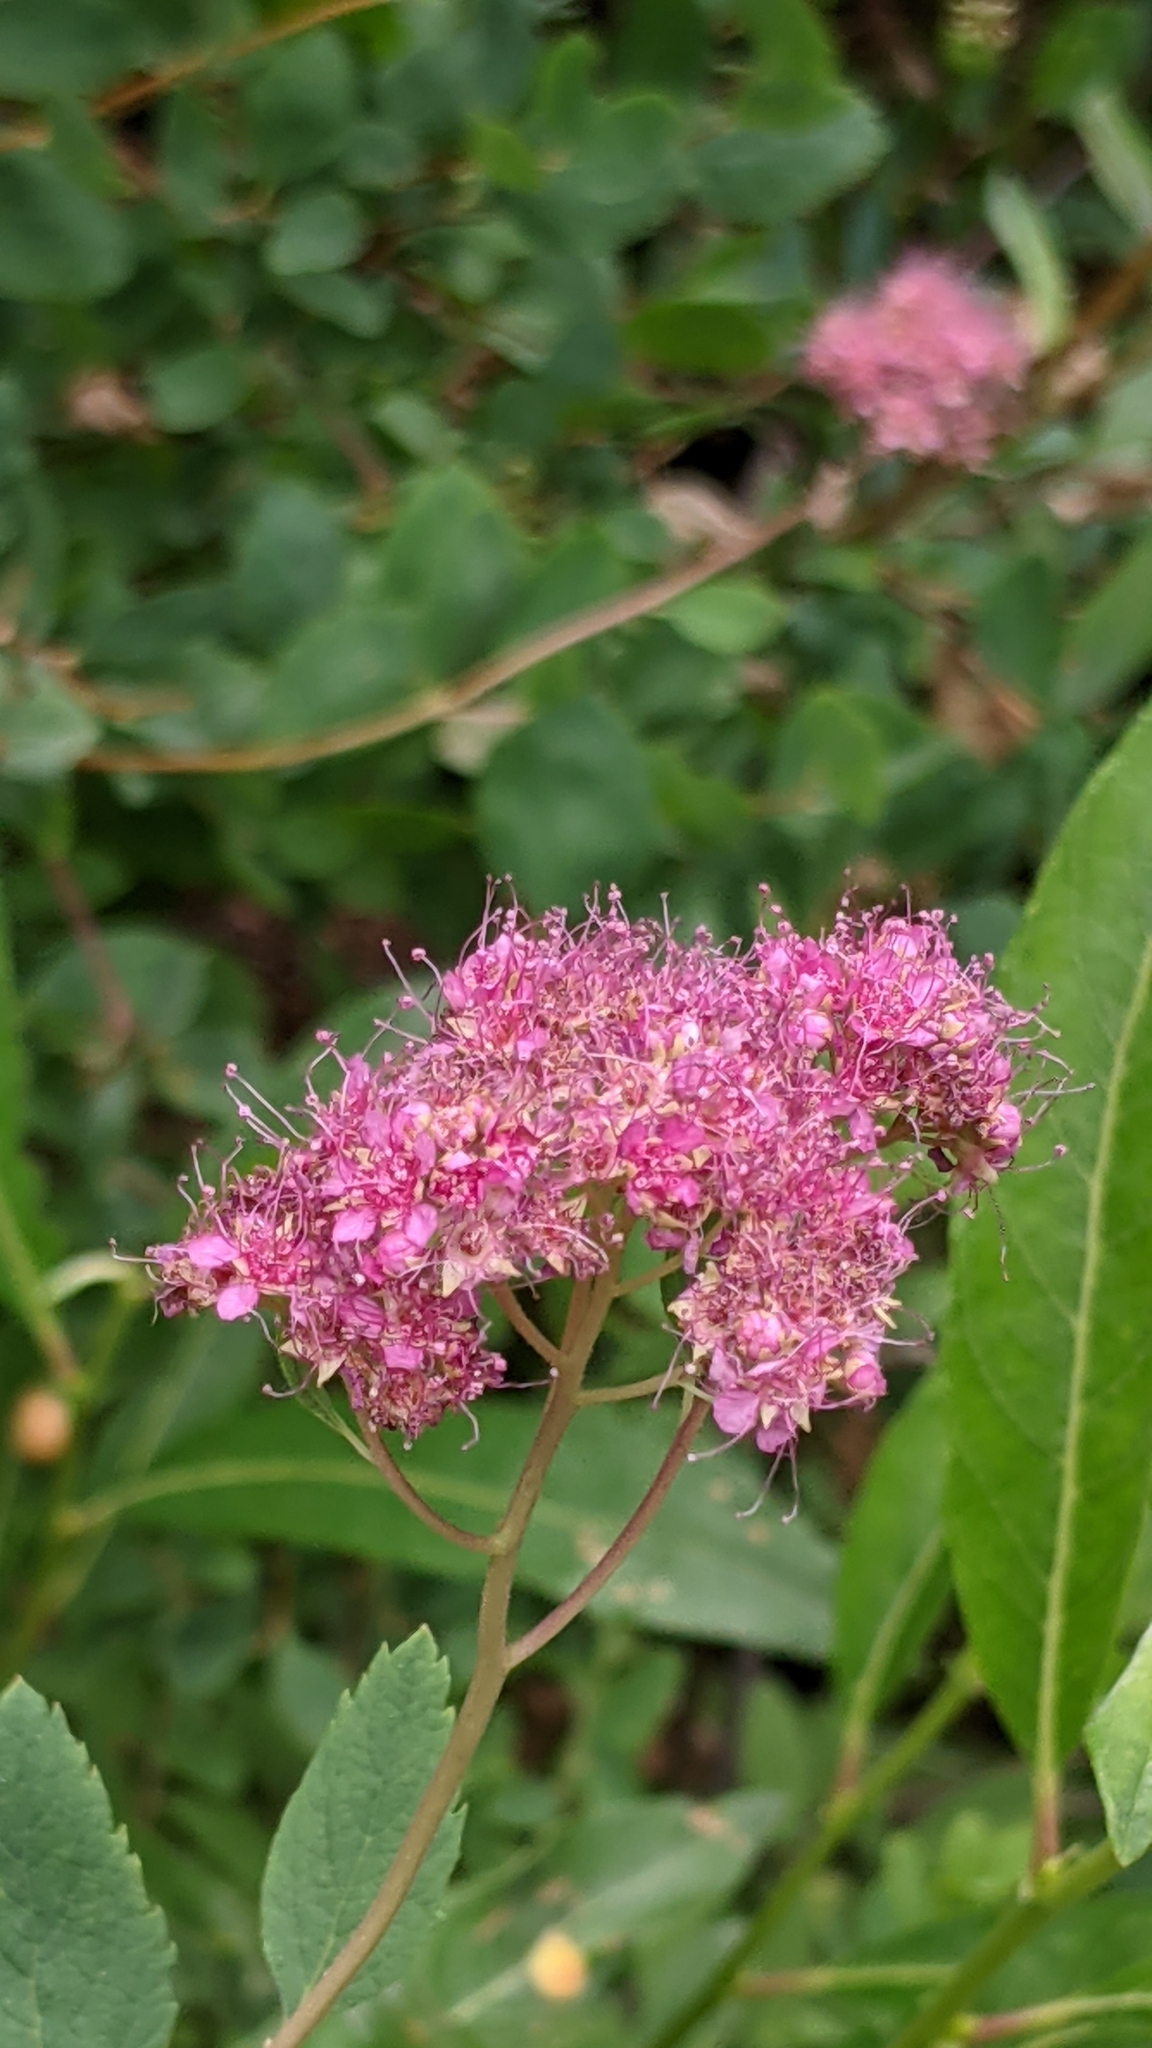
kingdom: Plantae
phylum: Tracheophyta
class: Magnoliopsida
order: Rosales
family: Rosaceae
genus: Spiraea
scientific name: Spiraea splendens
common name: Subalpine meadowsweet
